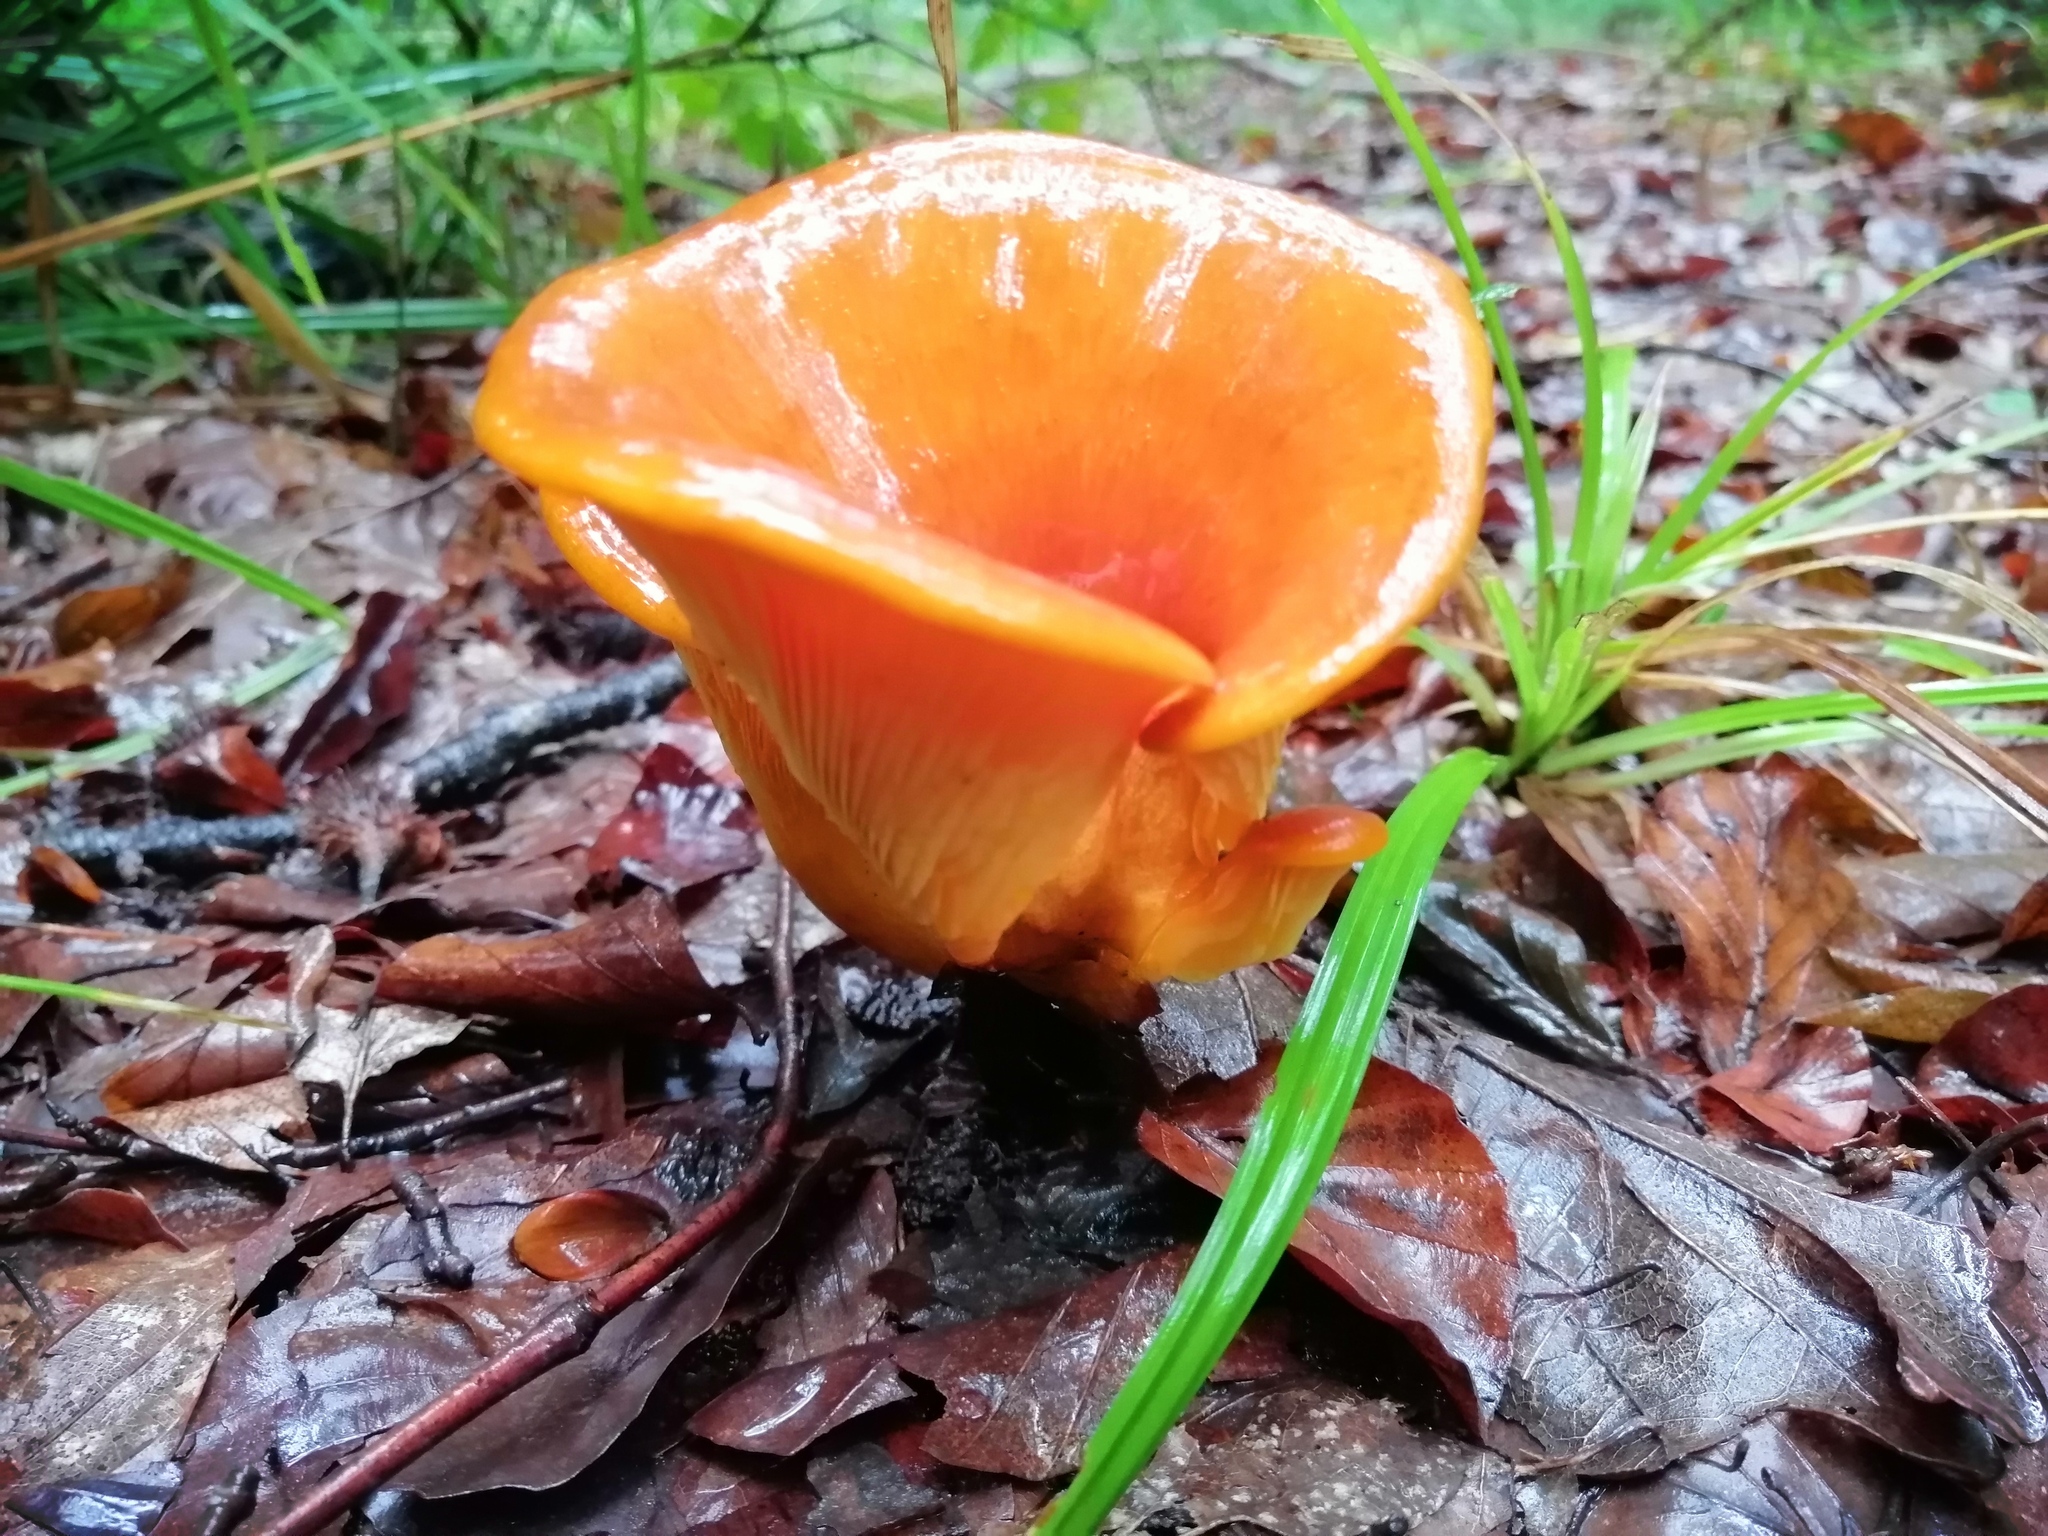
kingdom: Fungi
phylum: Basidiomycota
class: Agaricomycetes
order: Agaricales
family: Omphalotaceae
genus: Omphalotus
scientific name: Omphalotus olearius
